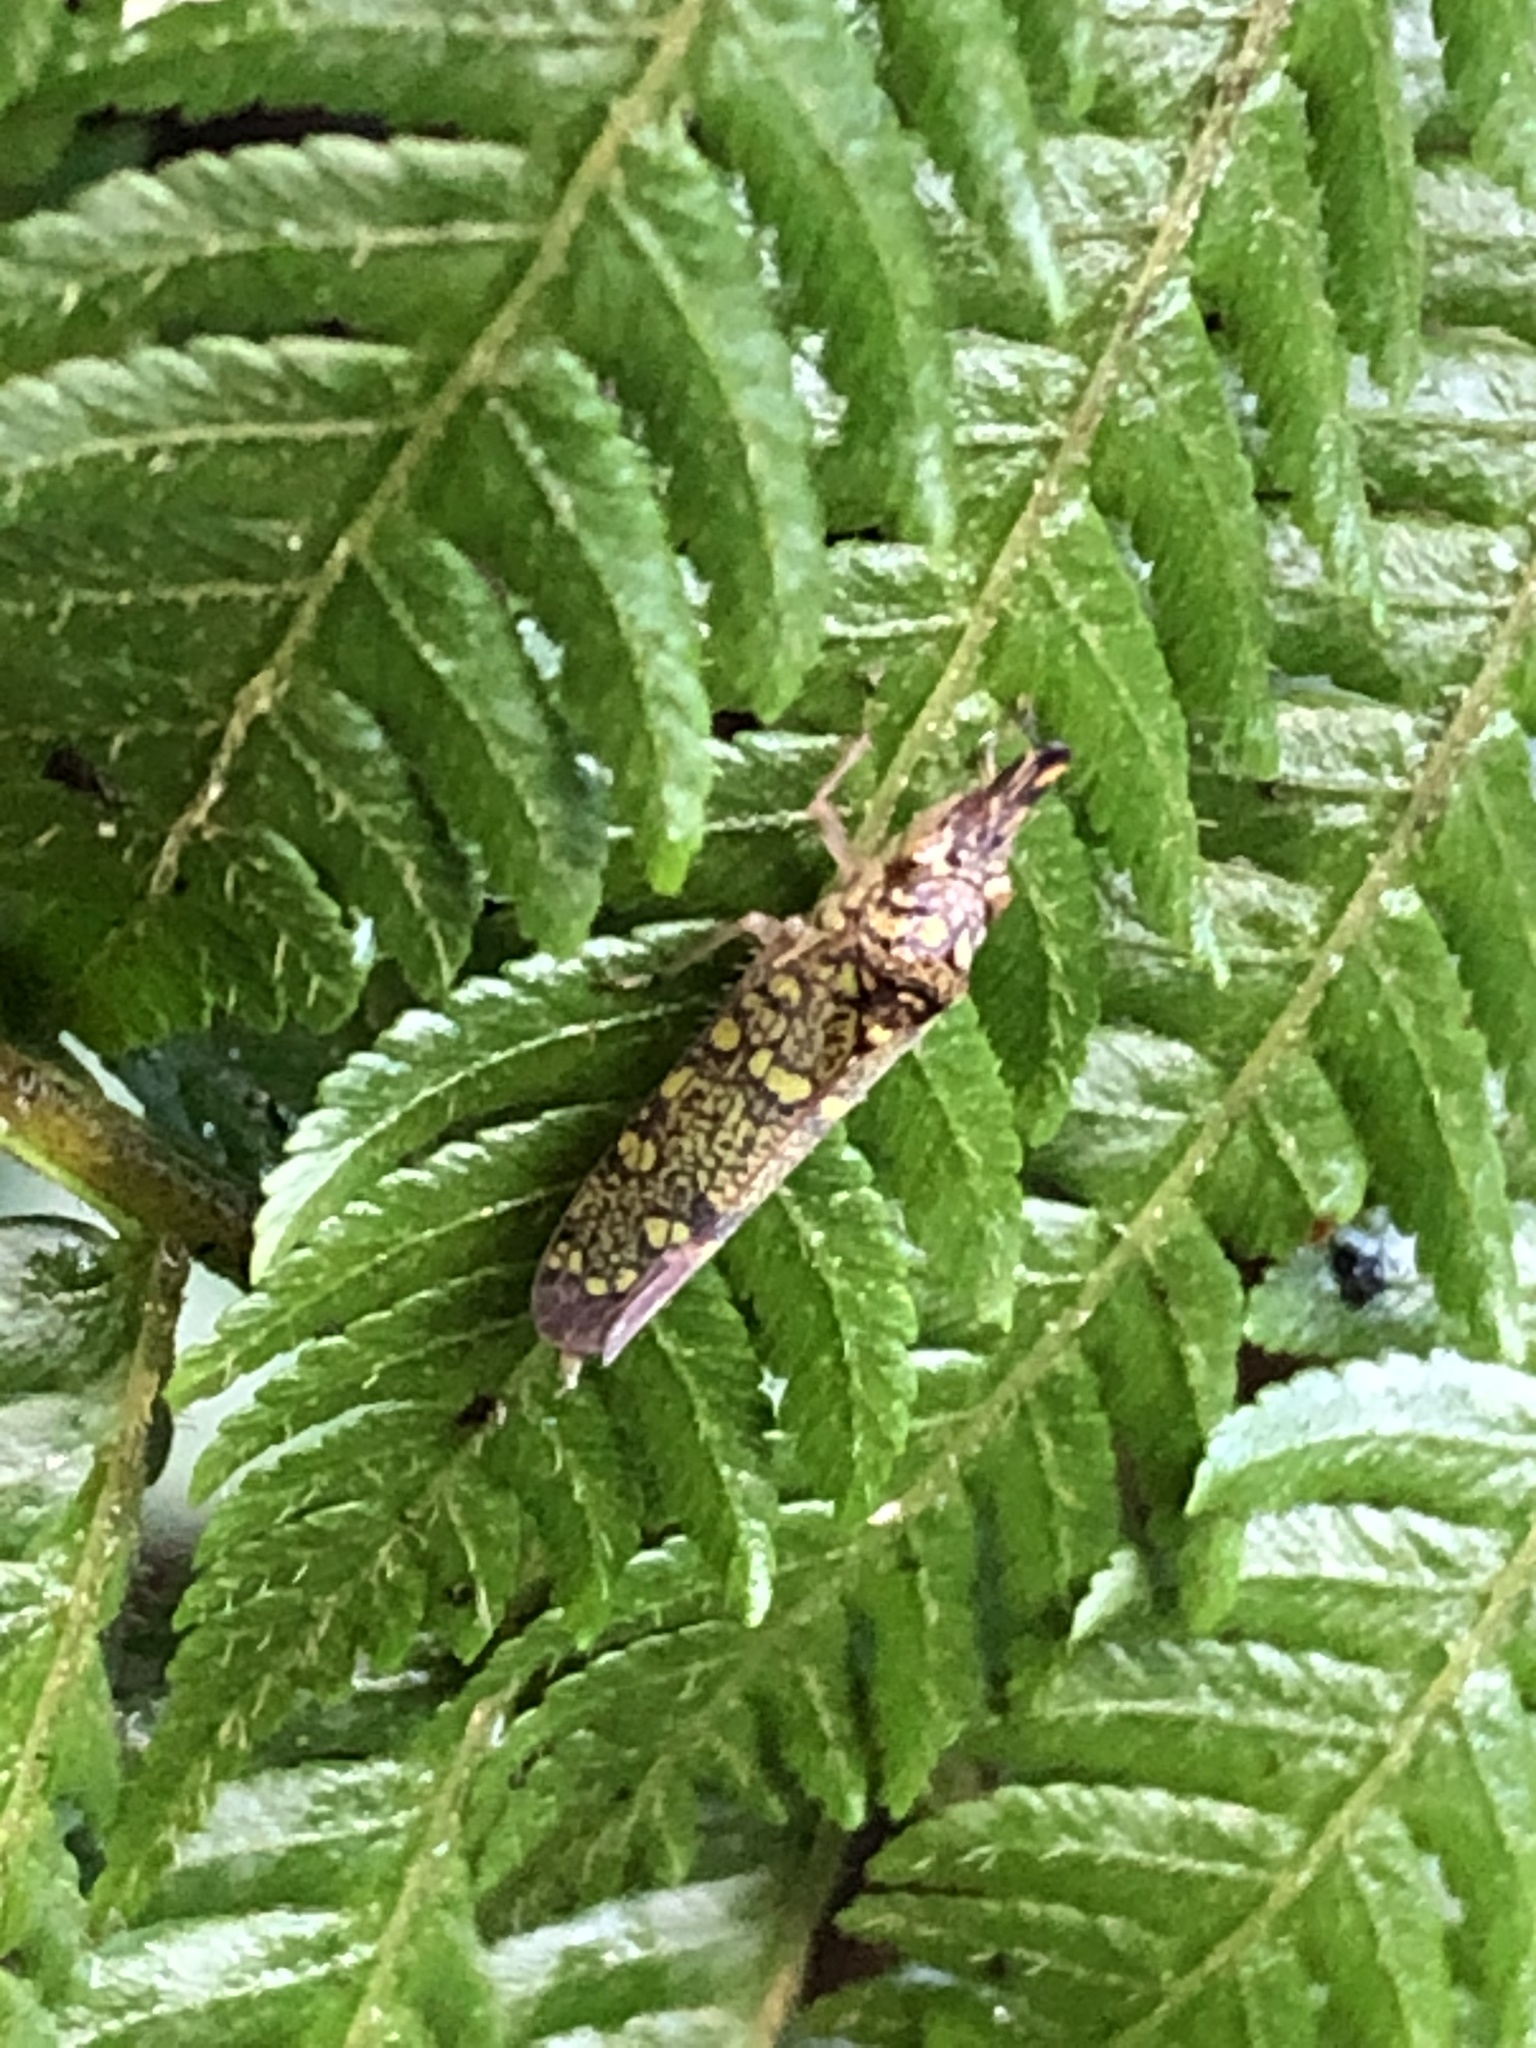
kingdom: Animalia
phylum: Arthropoda
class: Insecta
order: Hemiptera
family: Cicadellidae
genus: Ichthyobelus
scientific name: Ichthyobelus bellicosus
